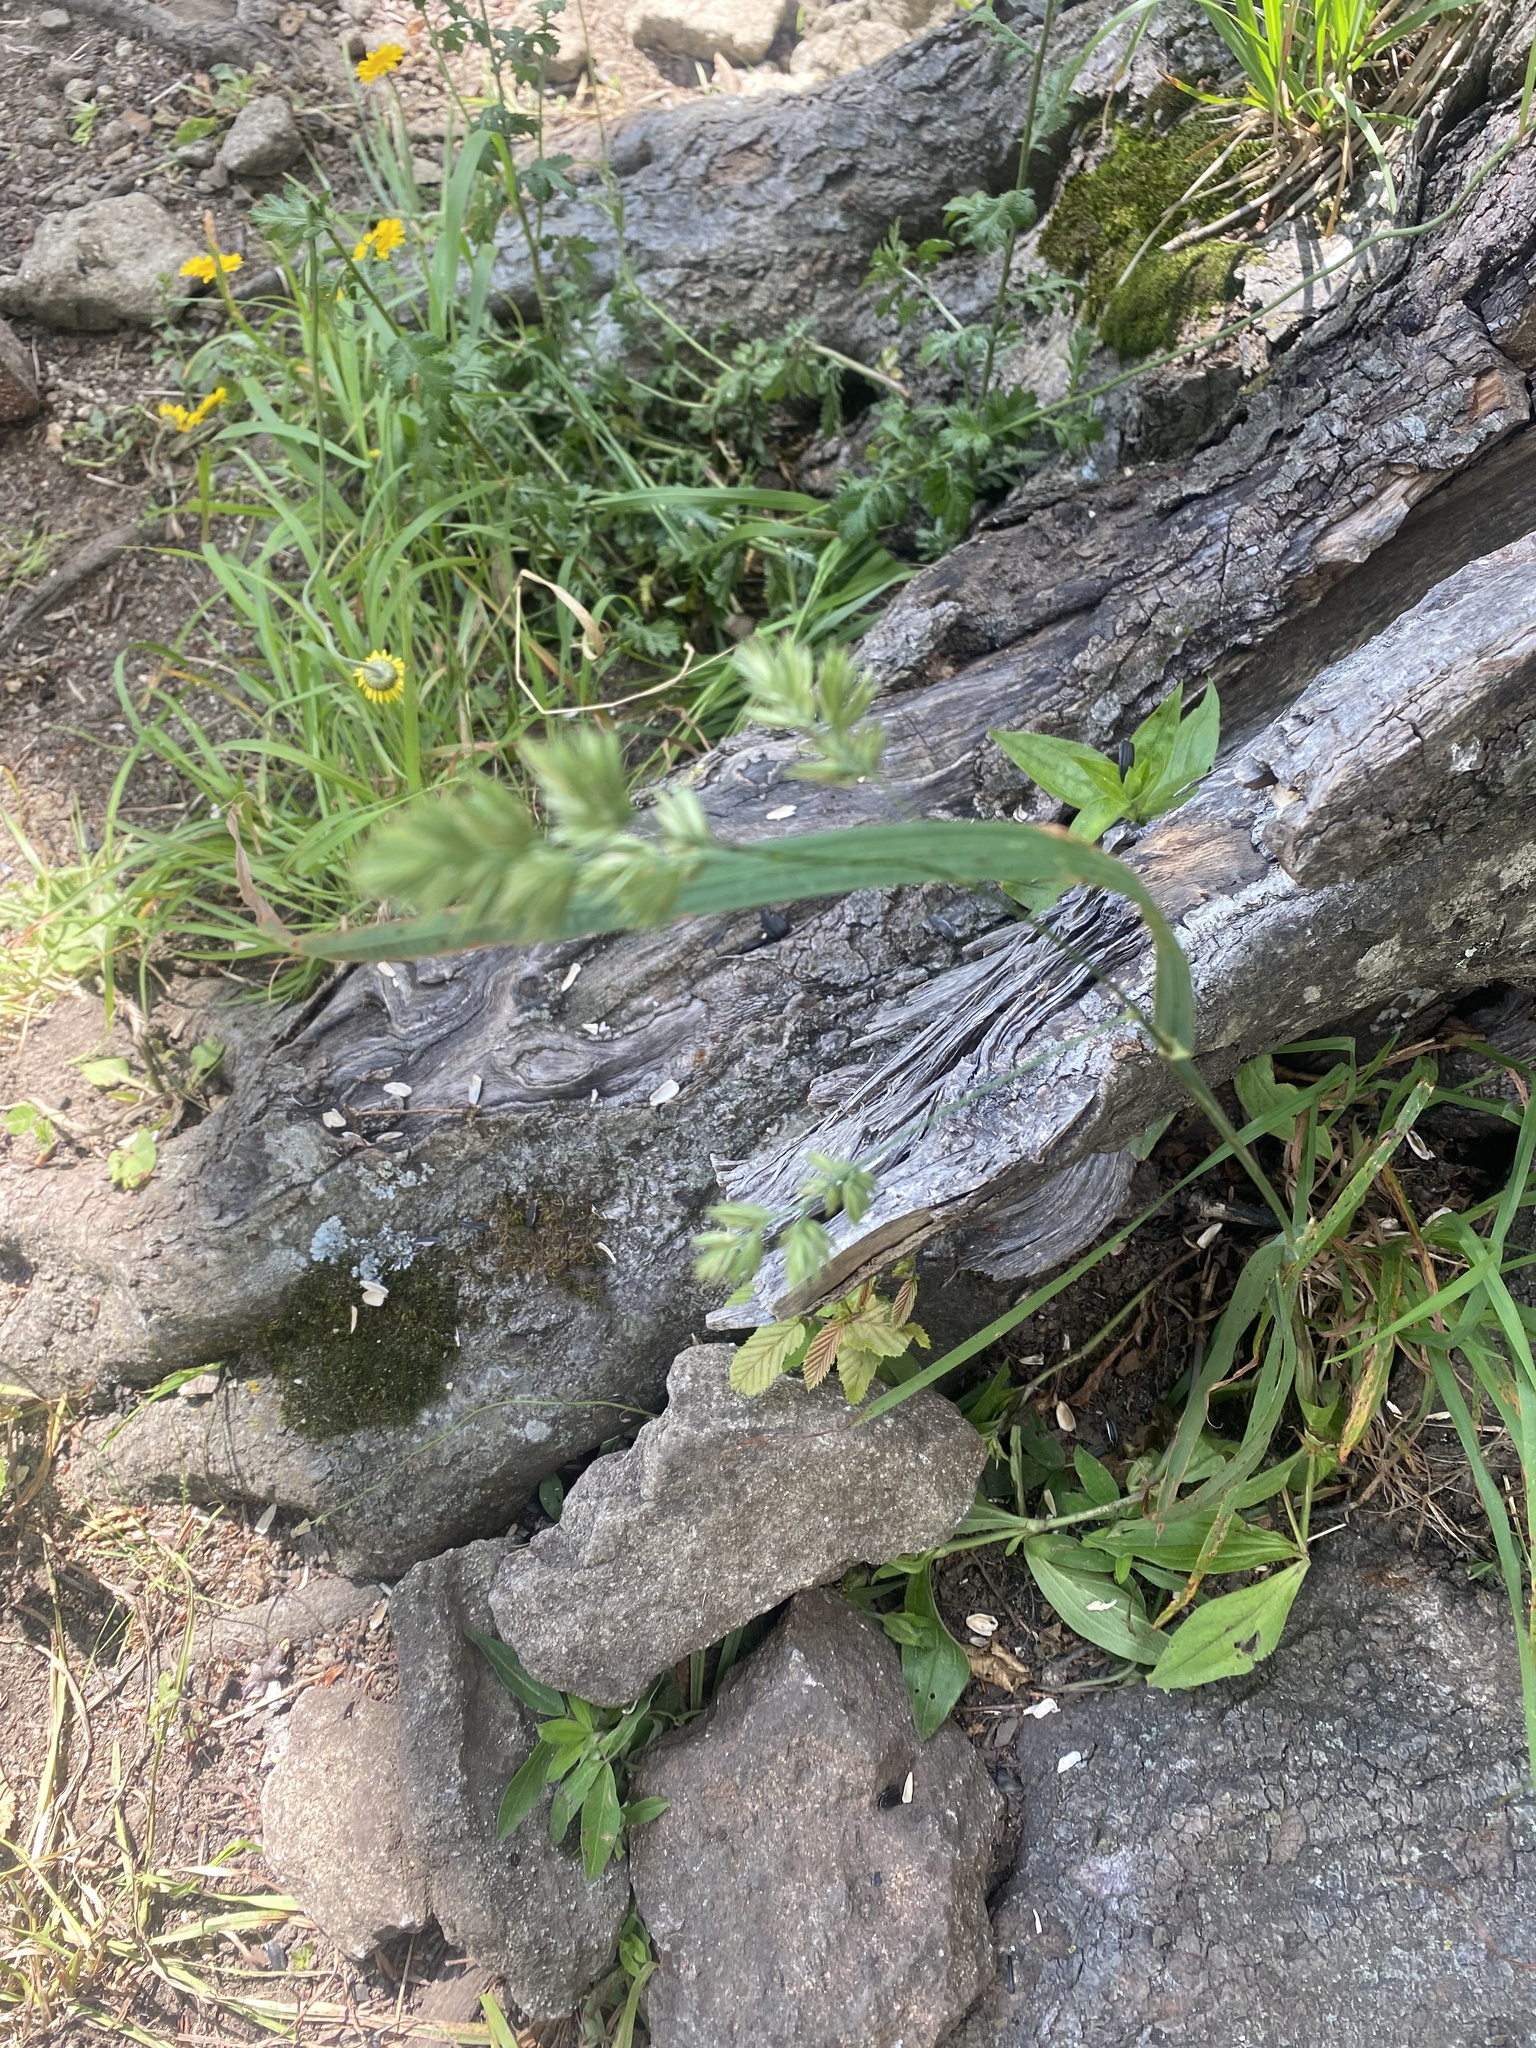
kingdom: Plantae
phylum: Tracheophyta
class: Liliopsida
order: Poales
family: Poaceae
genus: Dactylis
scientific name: Dactylis glomerata
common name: Orchardgrass
